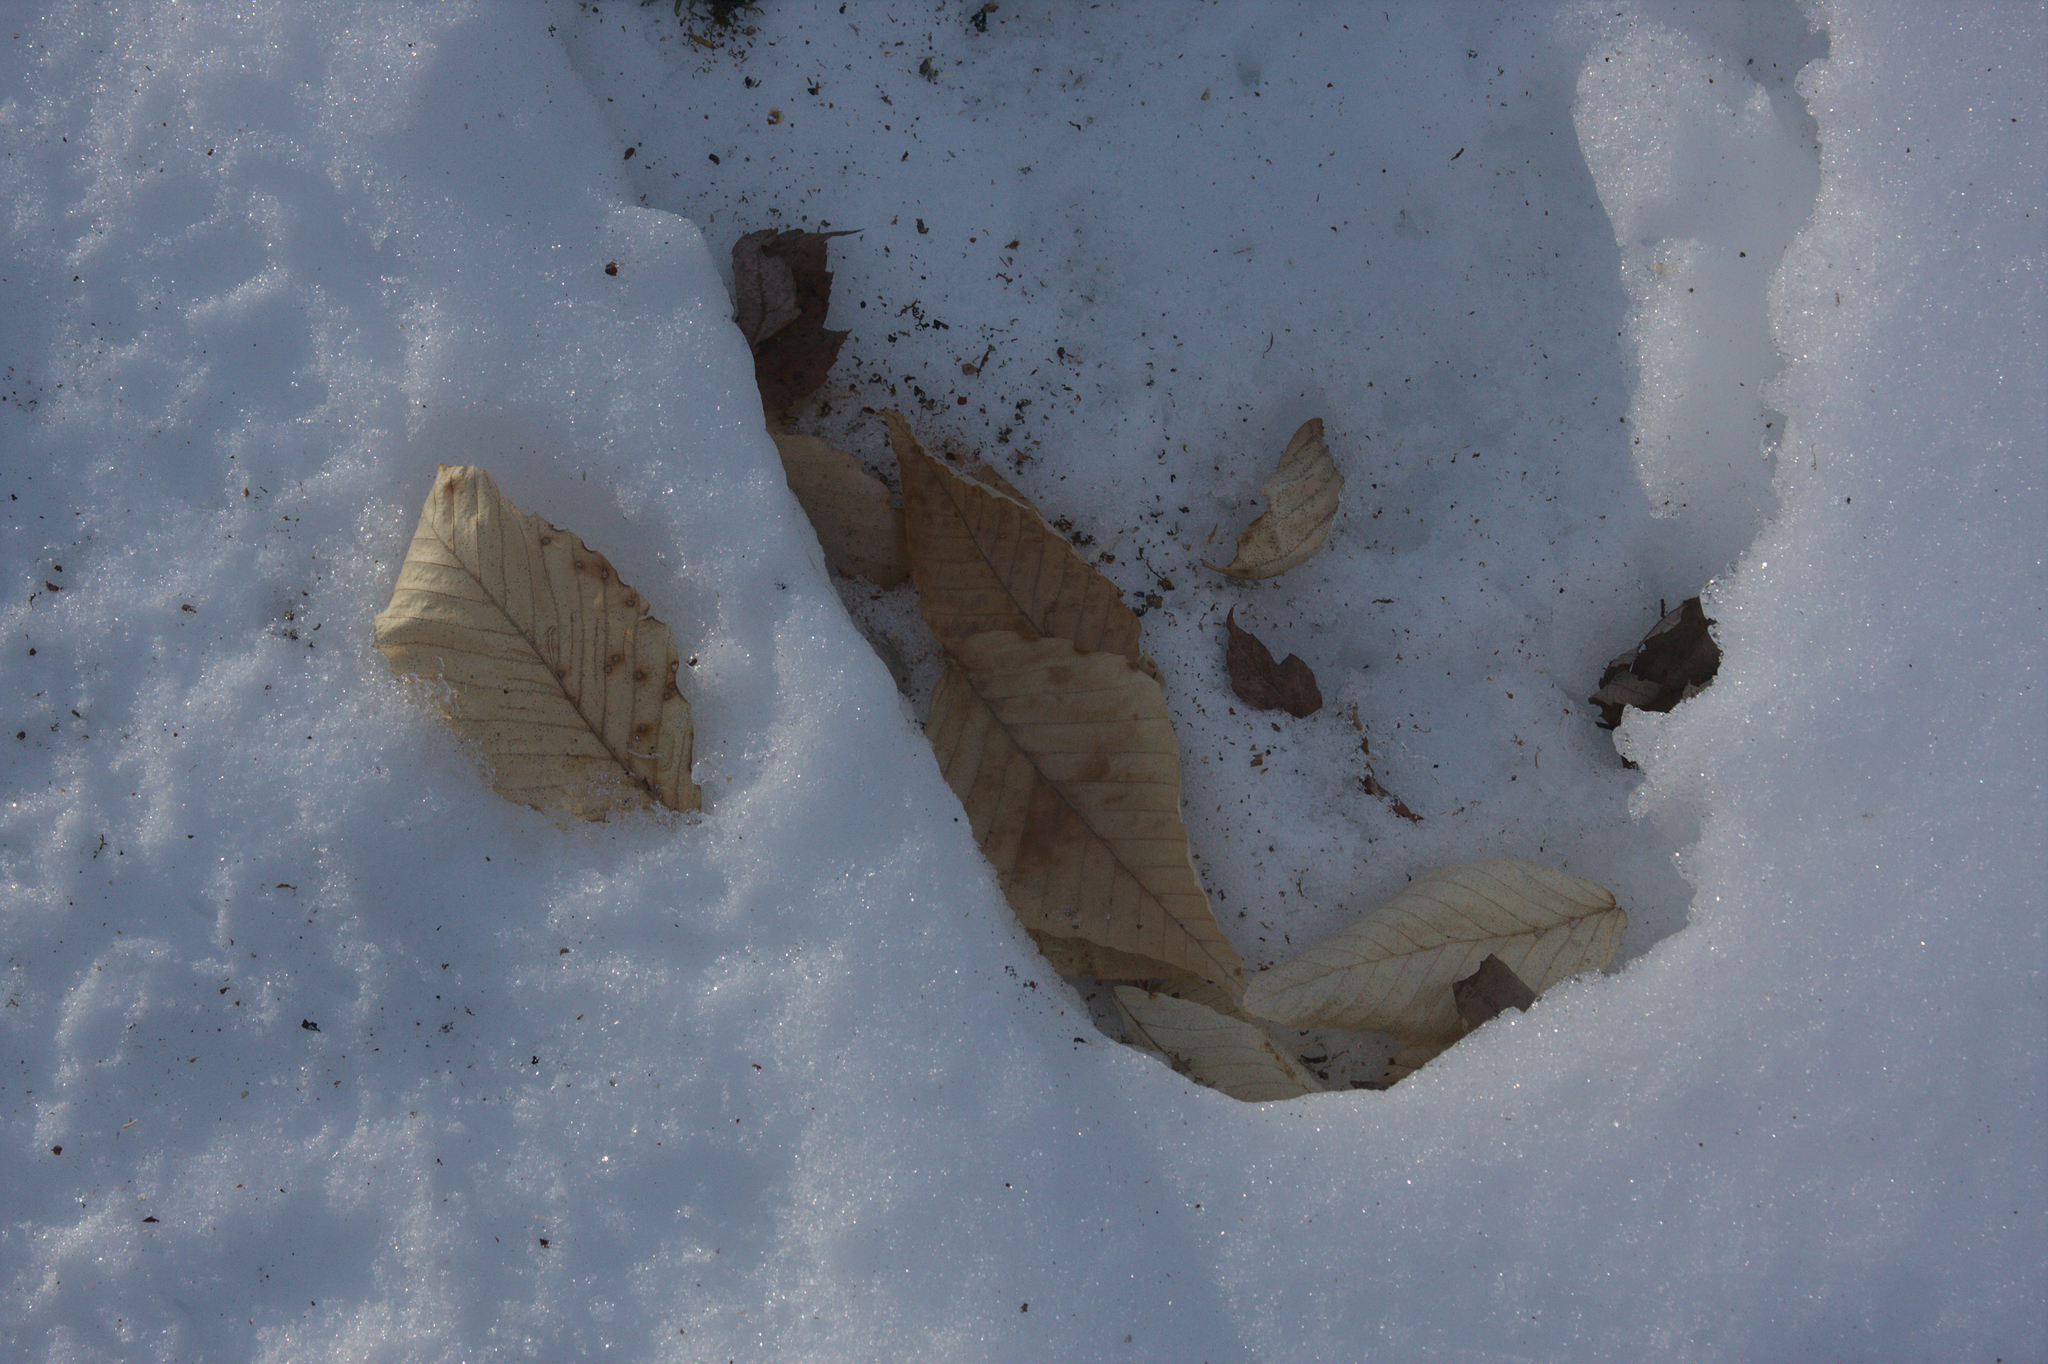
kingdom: Plantae
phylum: Tracheophyta
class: Magnoliopsida
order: Fagales
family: Fagaceae
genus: Fagus
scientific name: Fagus grandifolia
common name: American beech
